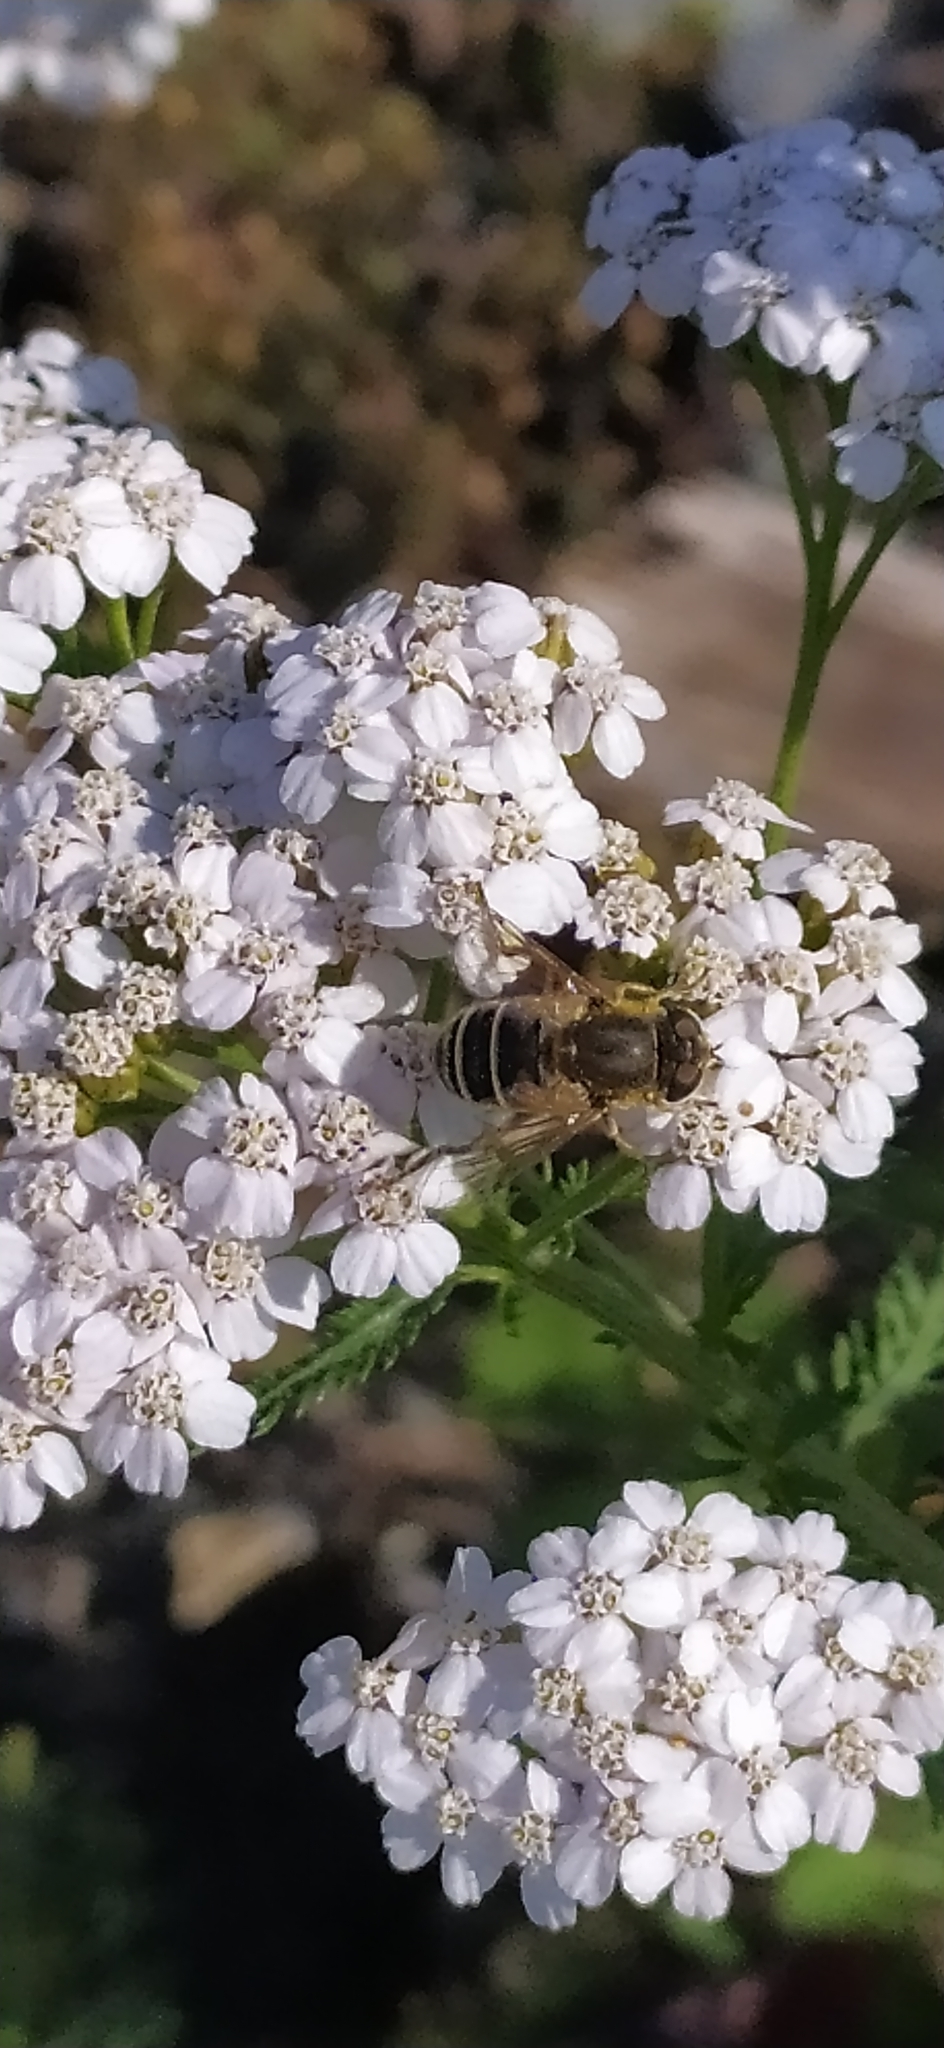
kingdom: Animalia
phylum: Arthropoda
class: Insecta
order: Diptera
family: Syrphidae
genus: Eristalis
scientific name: Eristalis arbustorum
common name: Hover fly
